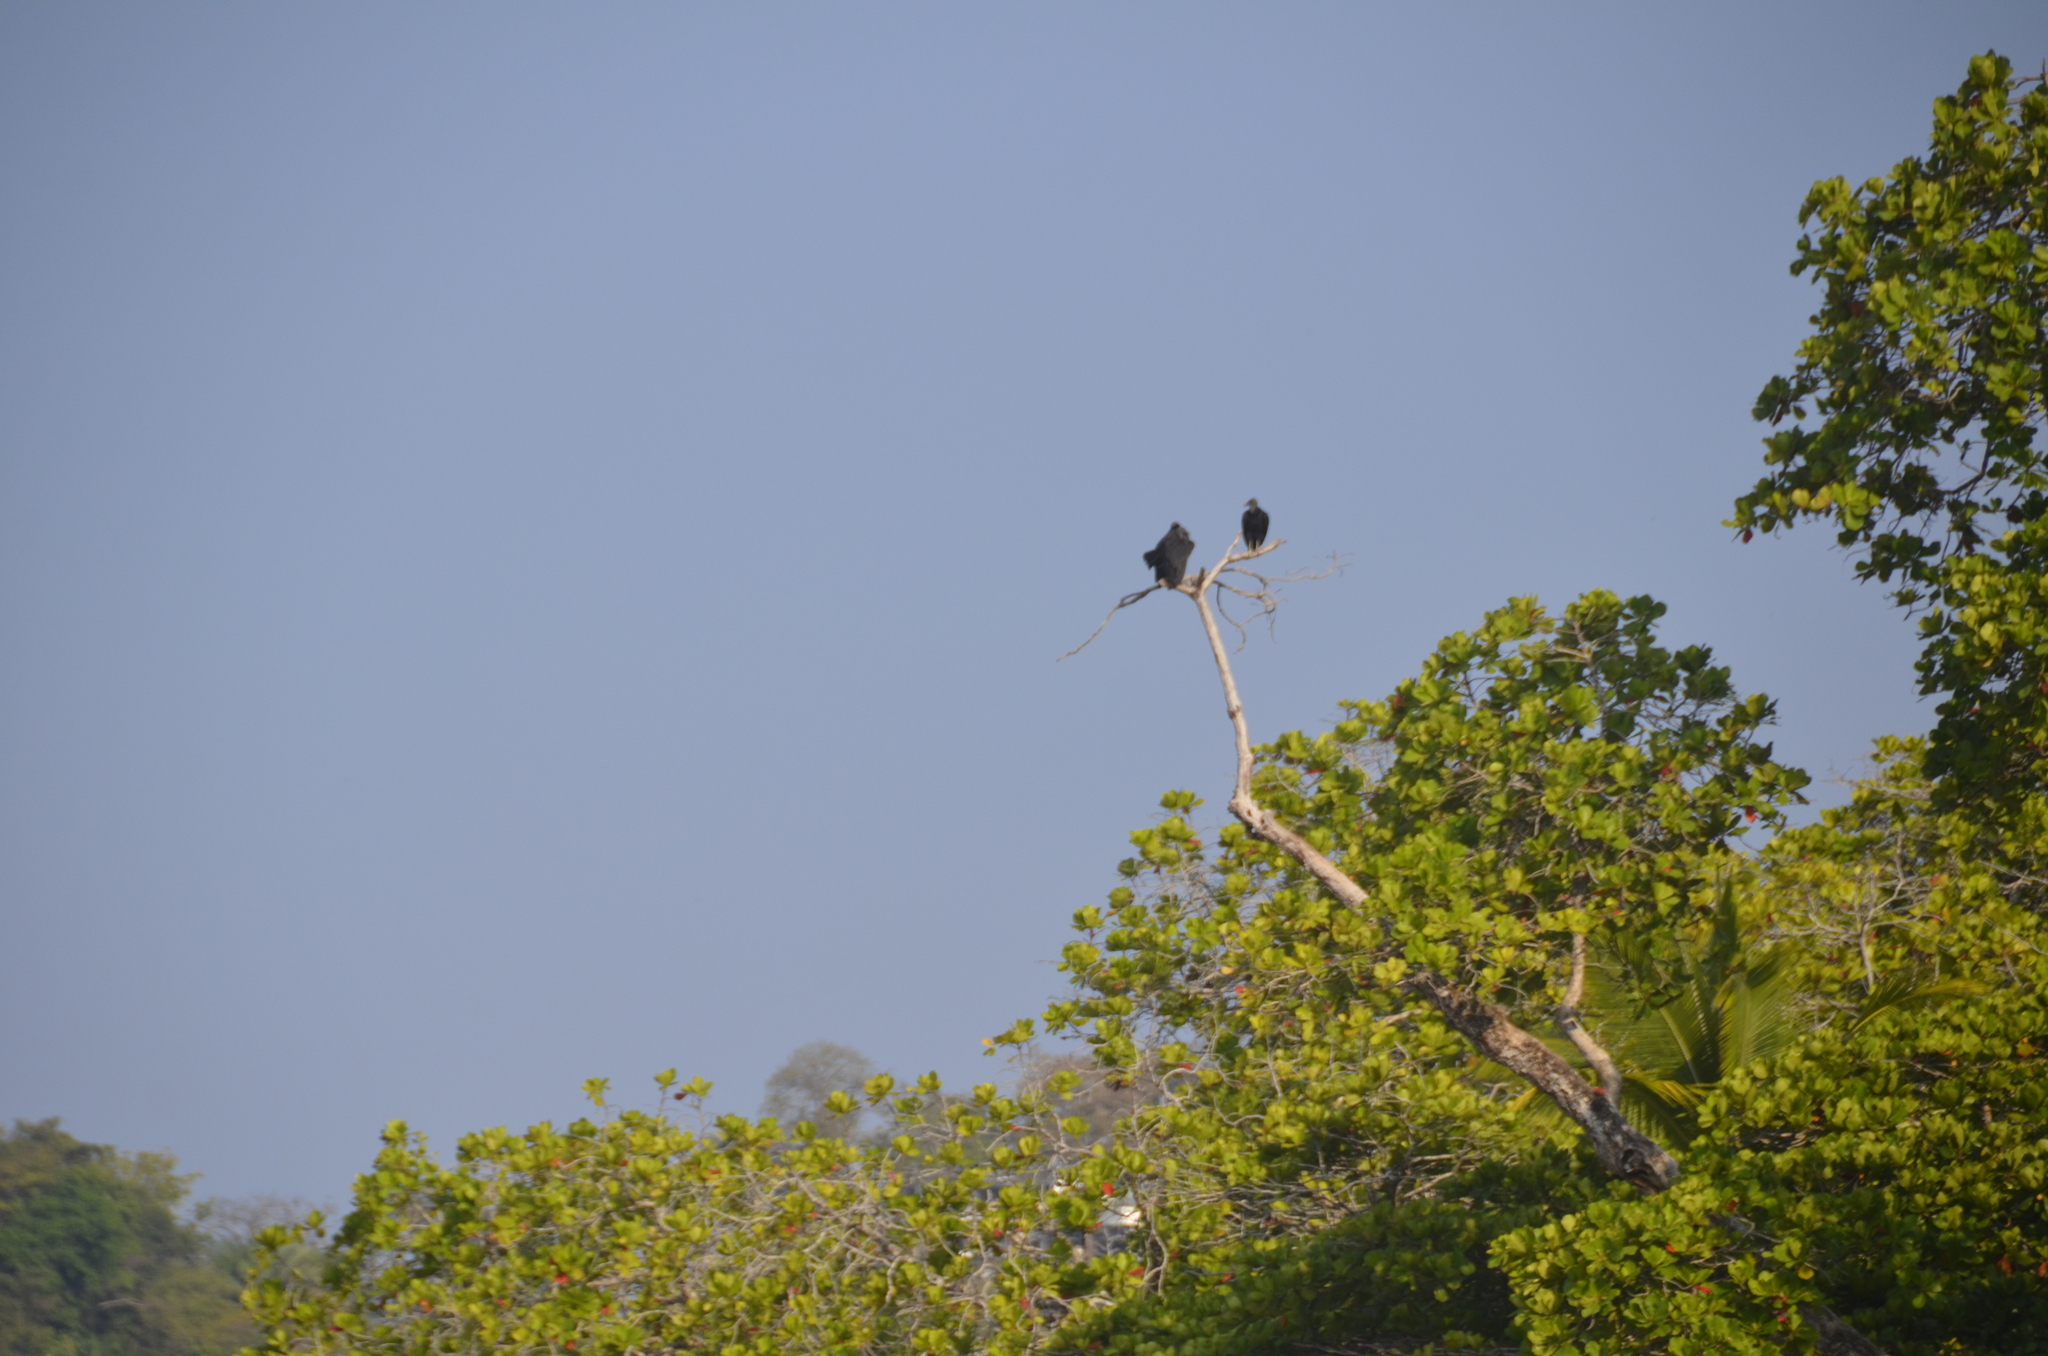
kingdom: Animalia
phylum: Chordata
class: Aves
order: Accipitriformes
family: Cathartidae
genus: Coragyps
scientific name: Coragyps atratus
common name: Black vulture
